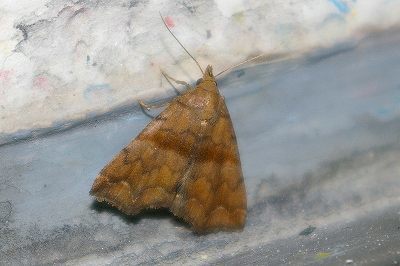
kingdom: Animalia
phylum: Arthropoda
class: Insecta
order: Lepidoptera
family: Erebidae
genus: Polypogon
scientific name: Polypogon Hipoepa fractalis
